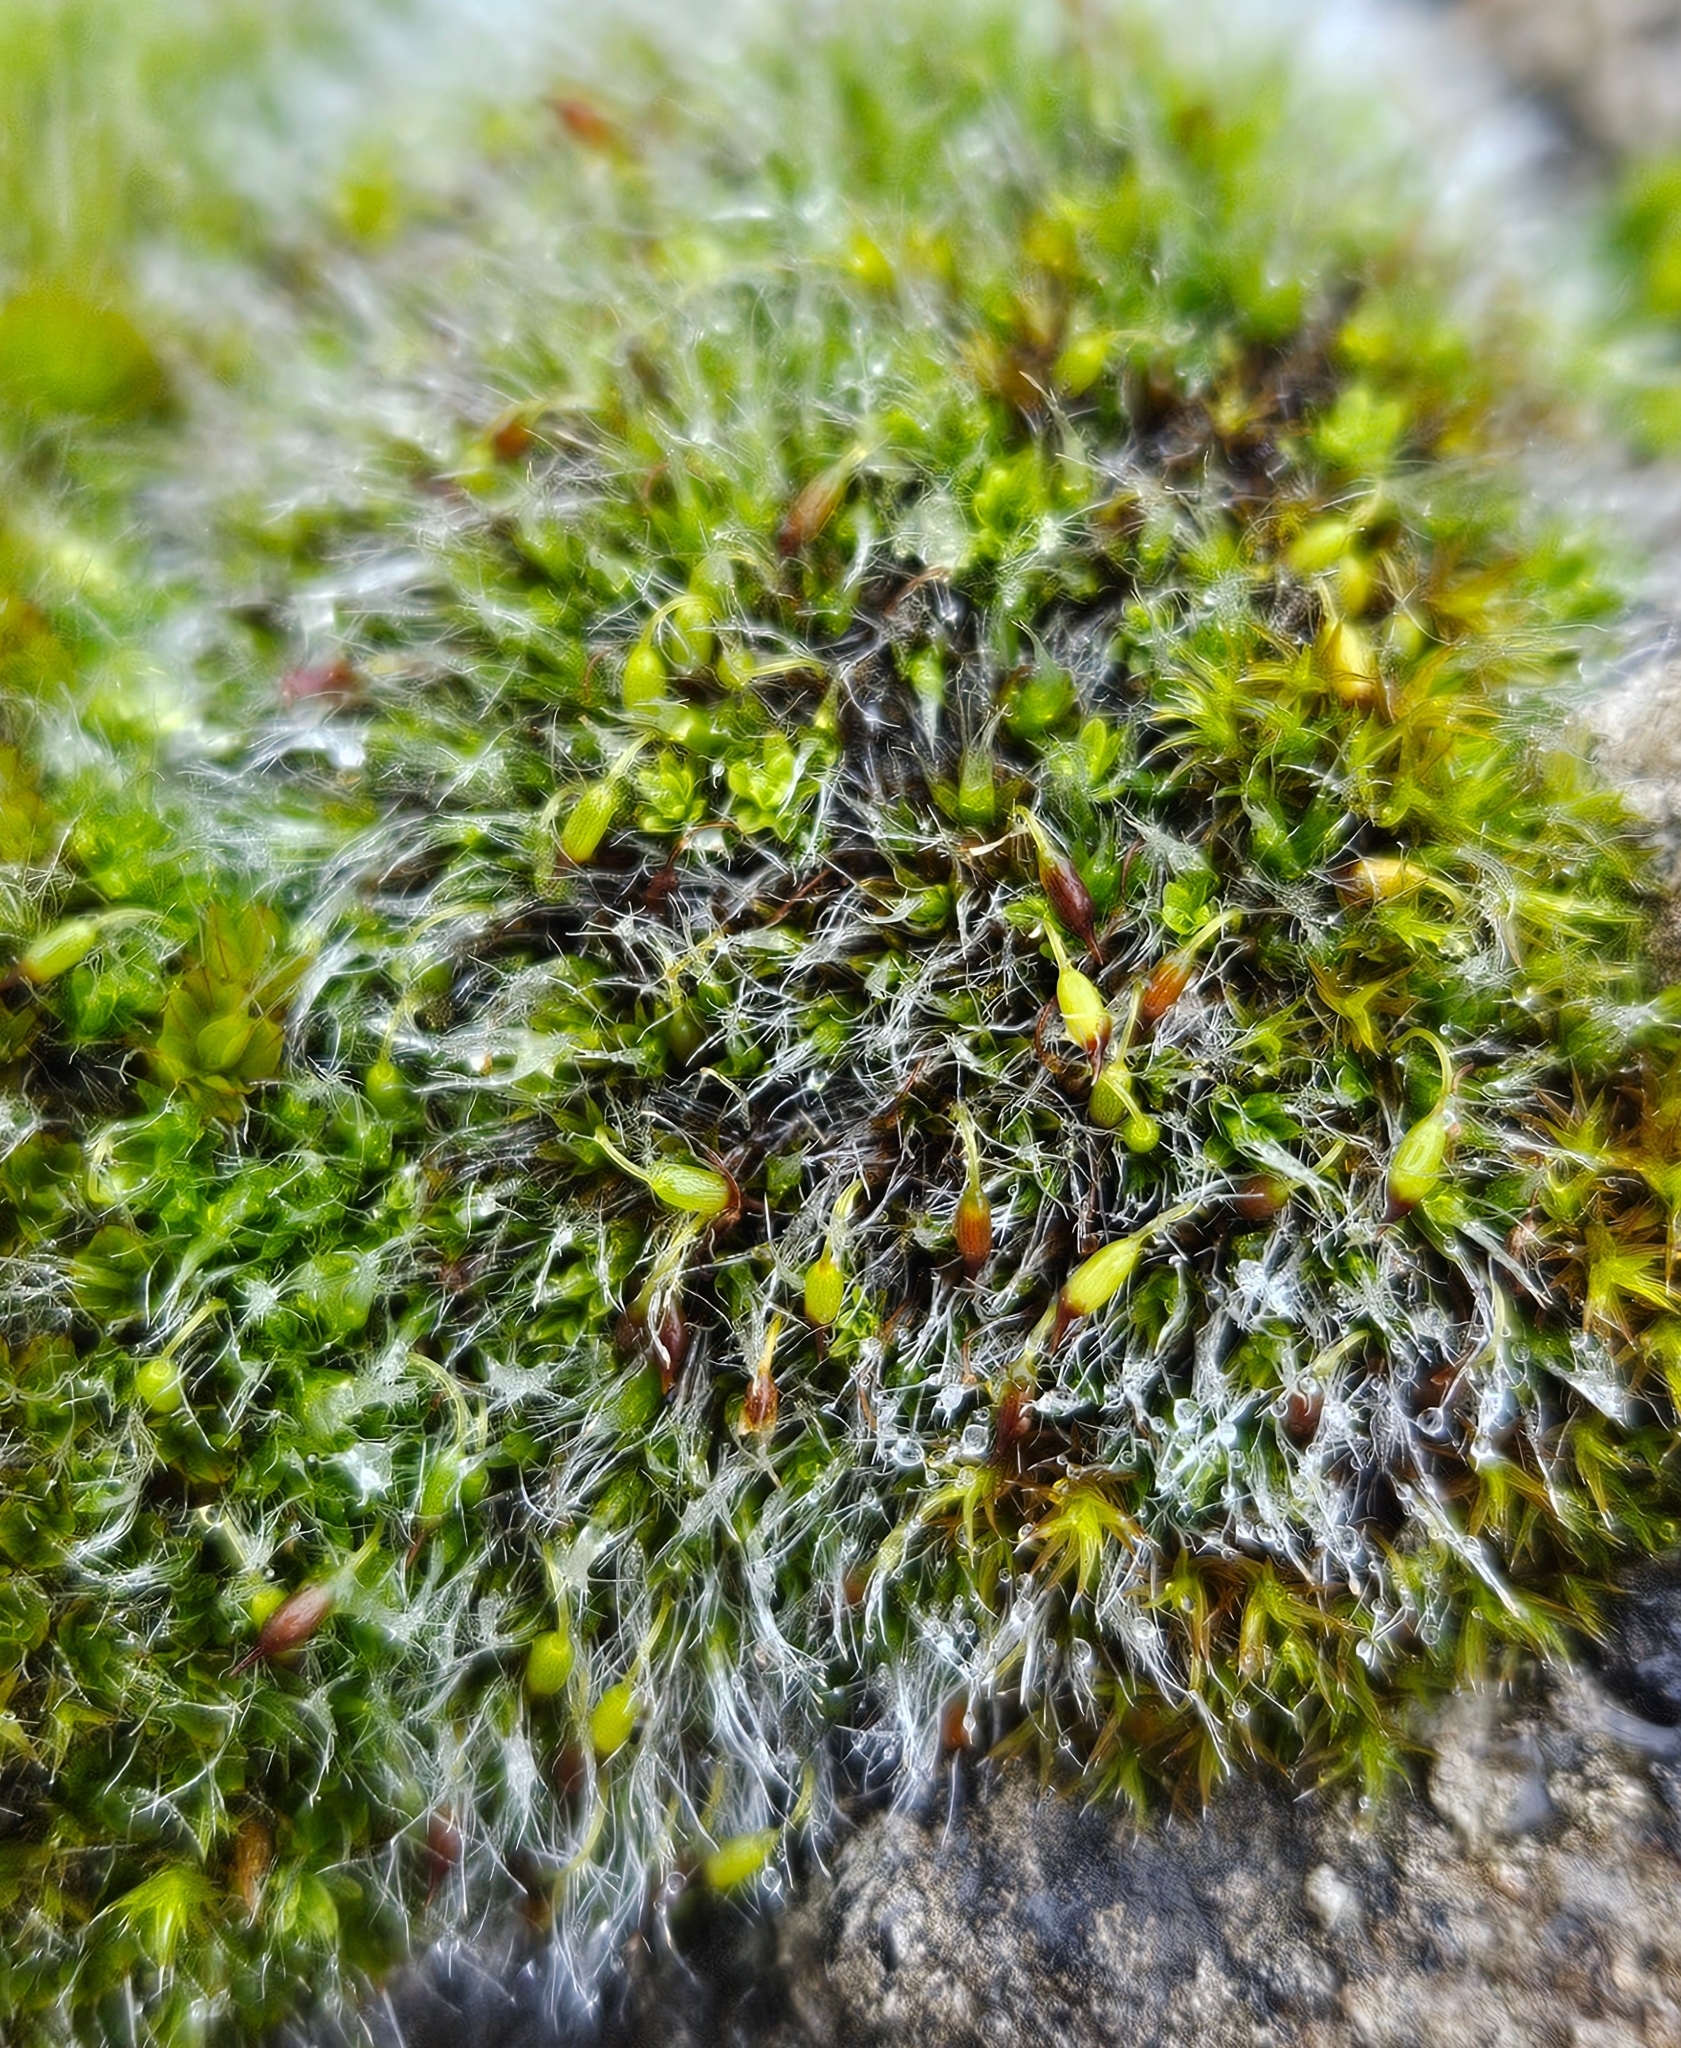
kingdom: Plantae
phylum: Bryophyta
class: Bryopsida
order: Grimmiales
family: Grimmiaceae
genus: Grimmia
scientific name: Grimmia pulvinata
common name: Grey-cushioned grimmia
